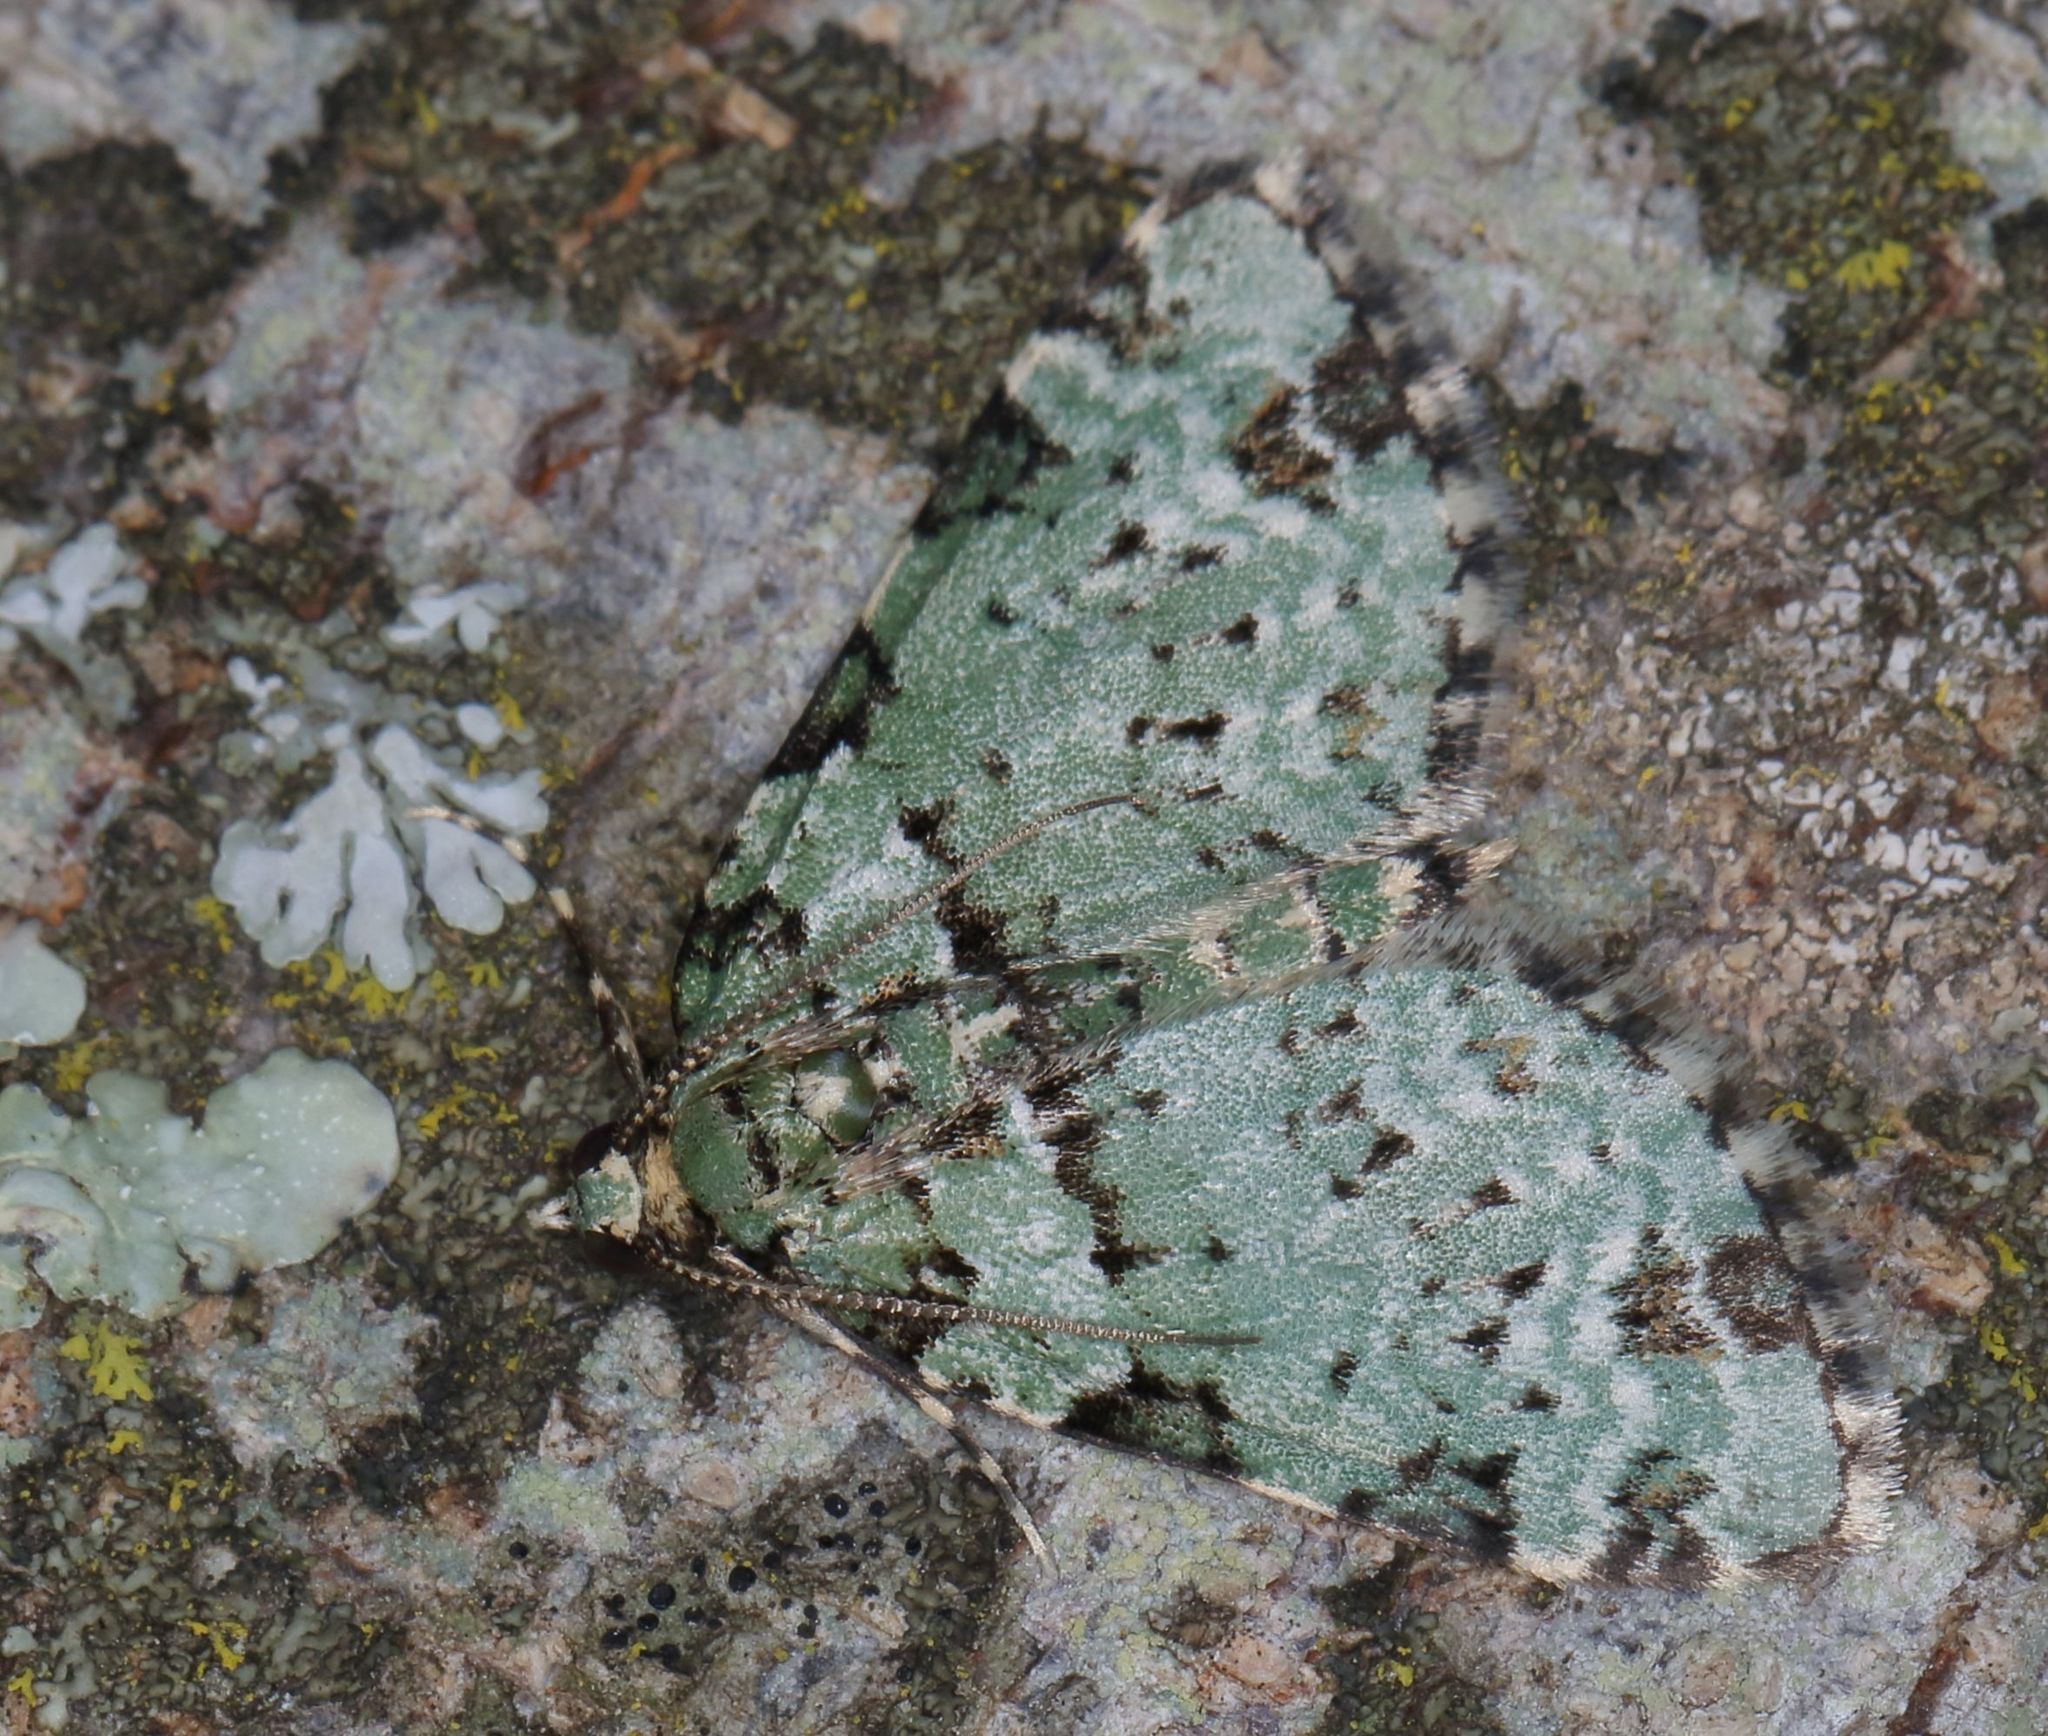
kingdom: Animalia
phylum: Arthropoda
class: Insecta
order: Lepidoptera
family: Geometridae
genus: Piercia
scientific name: Piercia bryophilaria
